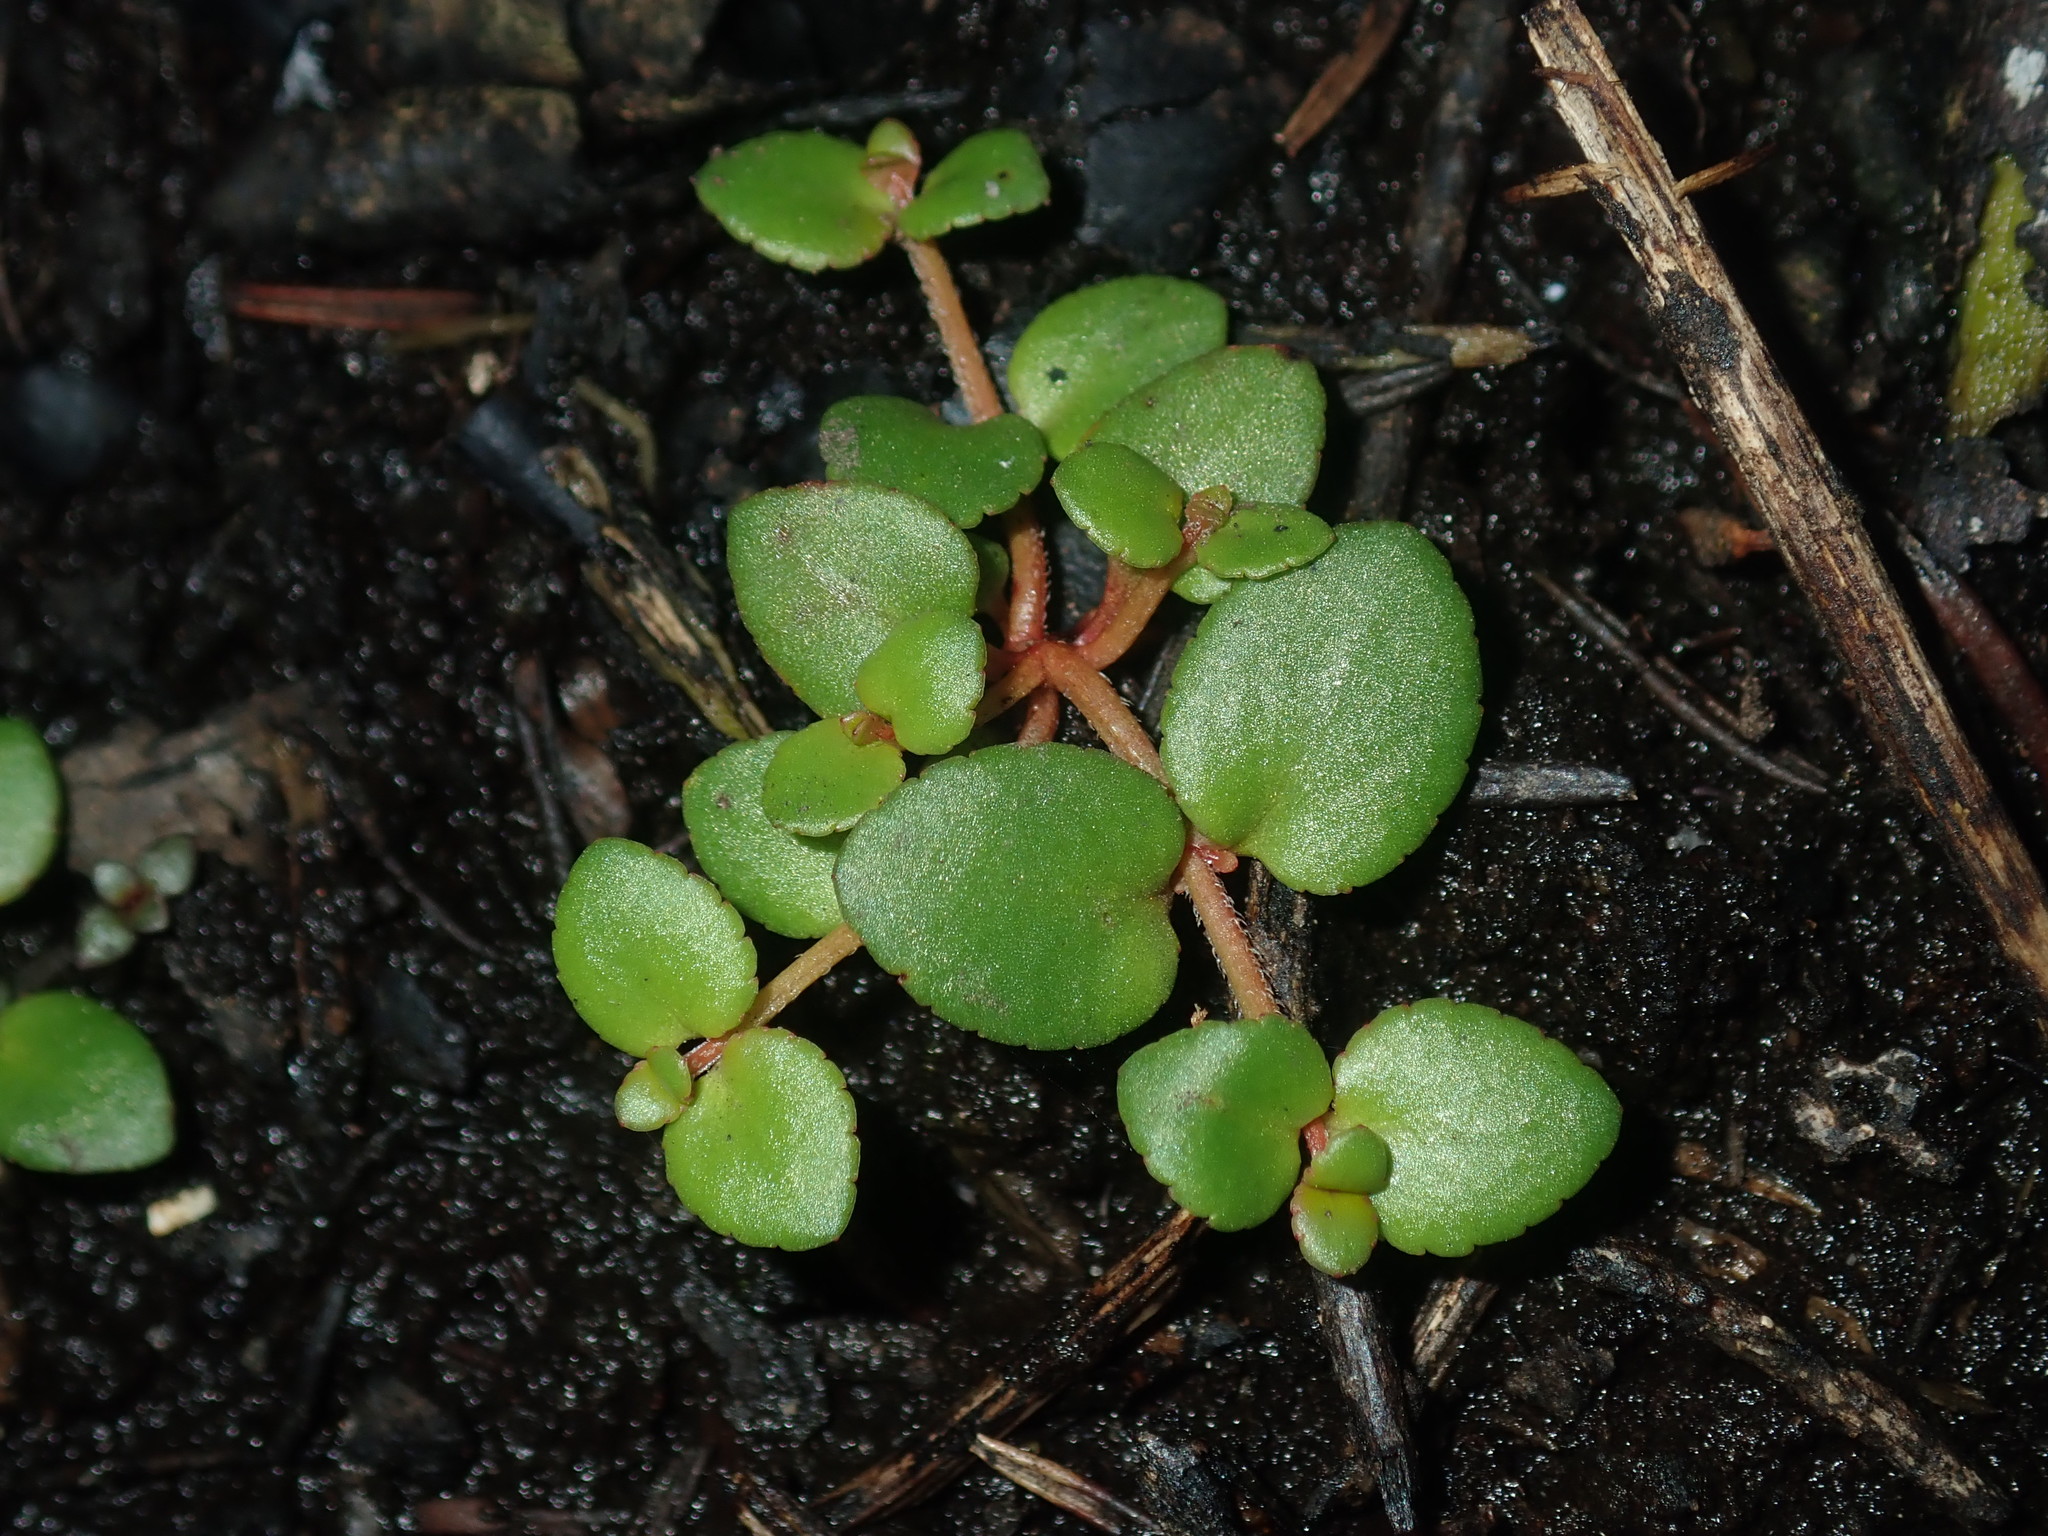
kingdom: Plantae
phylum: Tracheophyta
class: Magnoliopsida
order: Saxifragales
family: Haloragaceae
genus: Gonocarpus
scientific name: Gonocarpus micranthus
